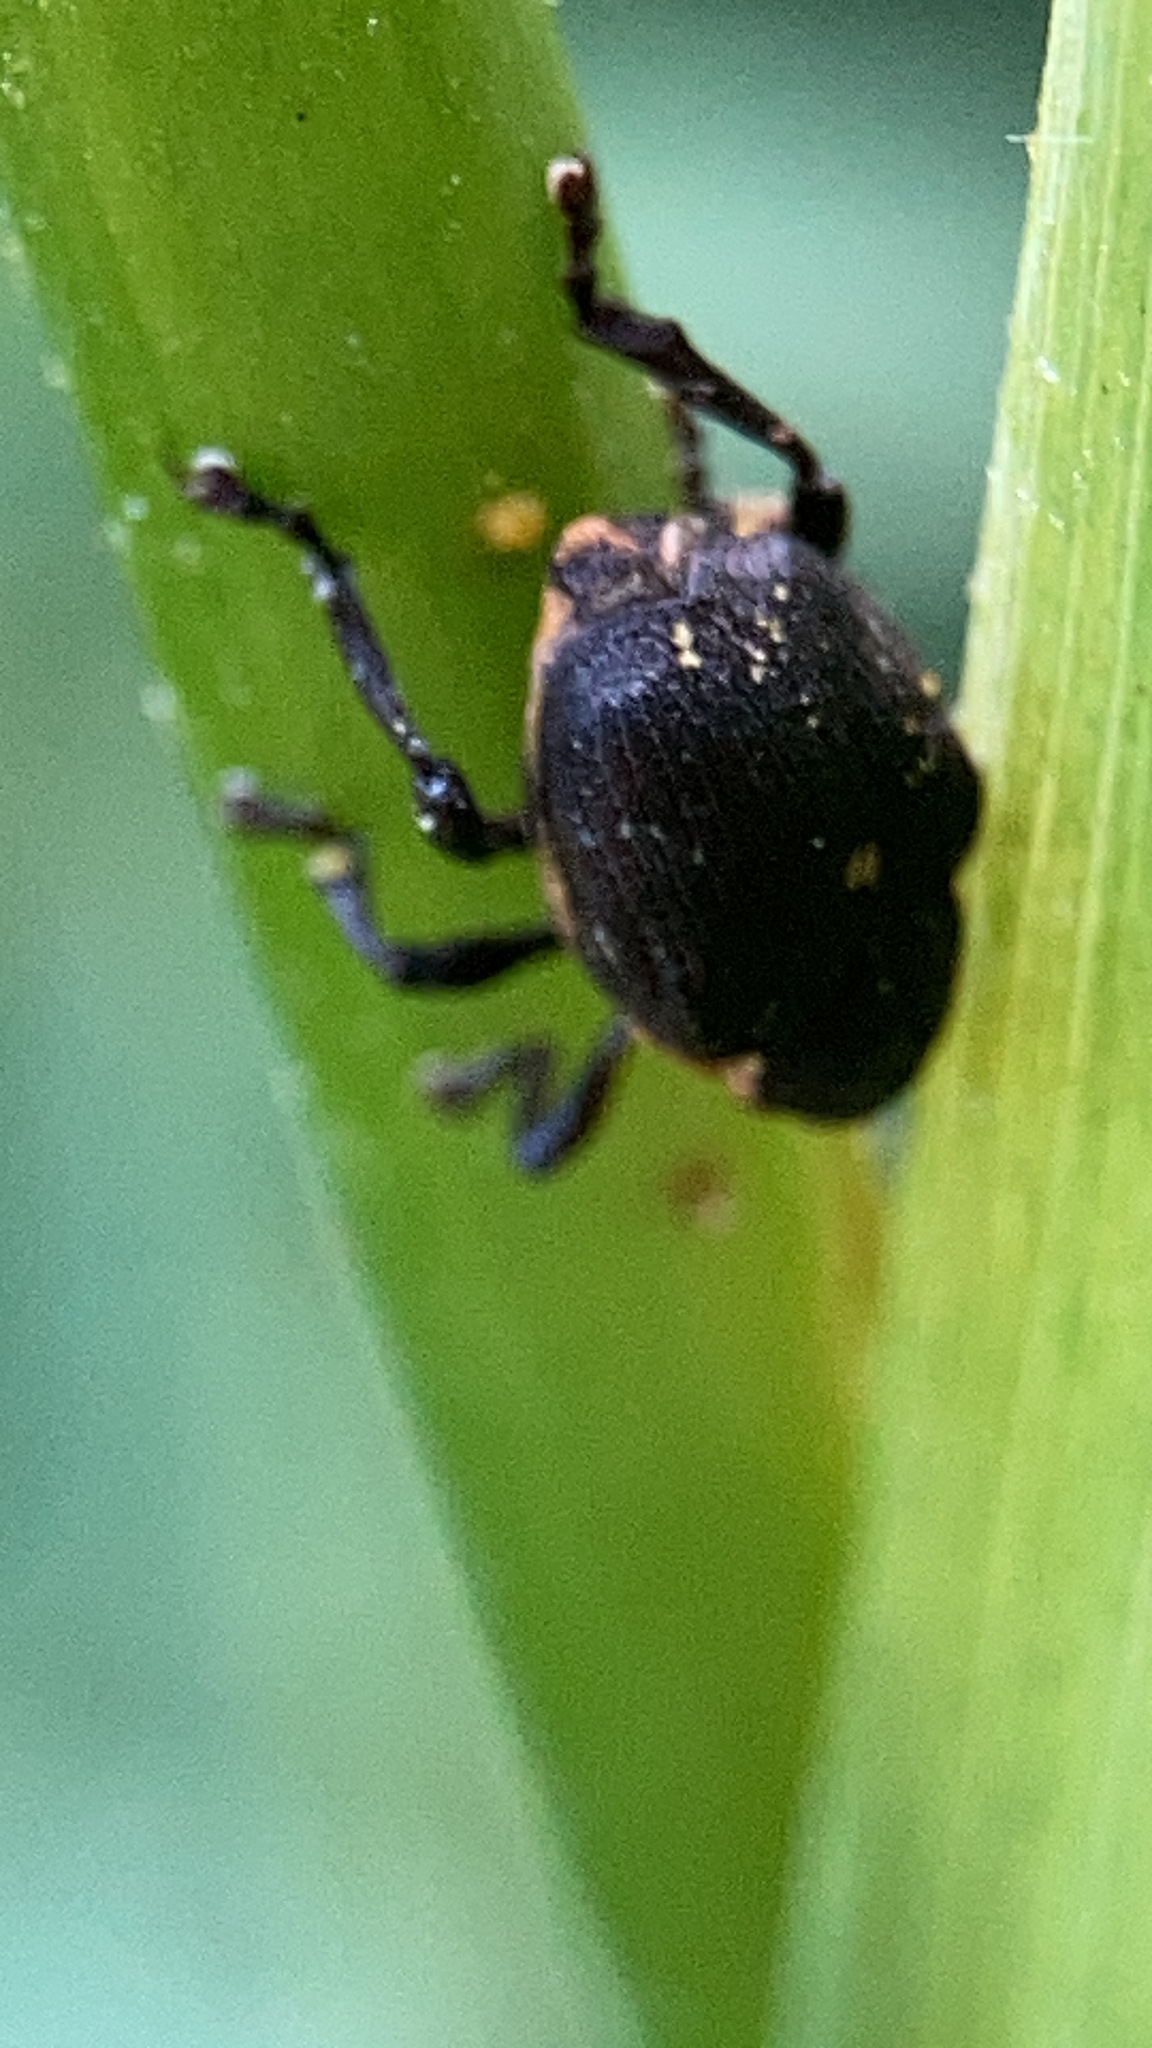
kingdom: Animalia
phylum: Arthropoda
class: Insecta
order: Coleoptera
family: Curculionidae
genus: Mononychus
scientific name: Mononychus punctumalbum
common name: Iris weevil
